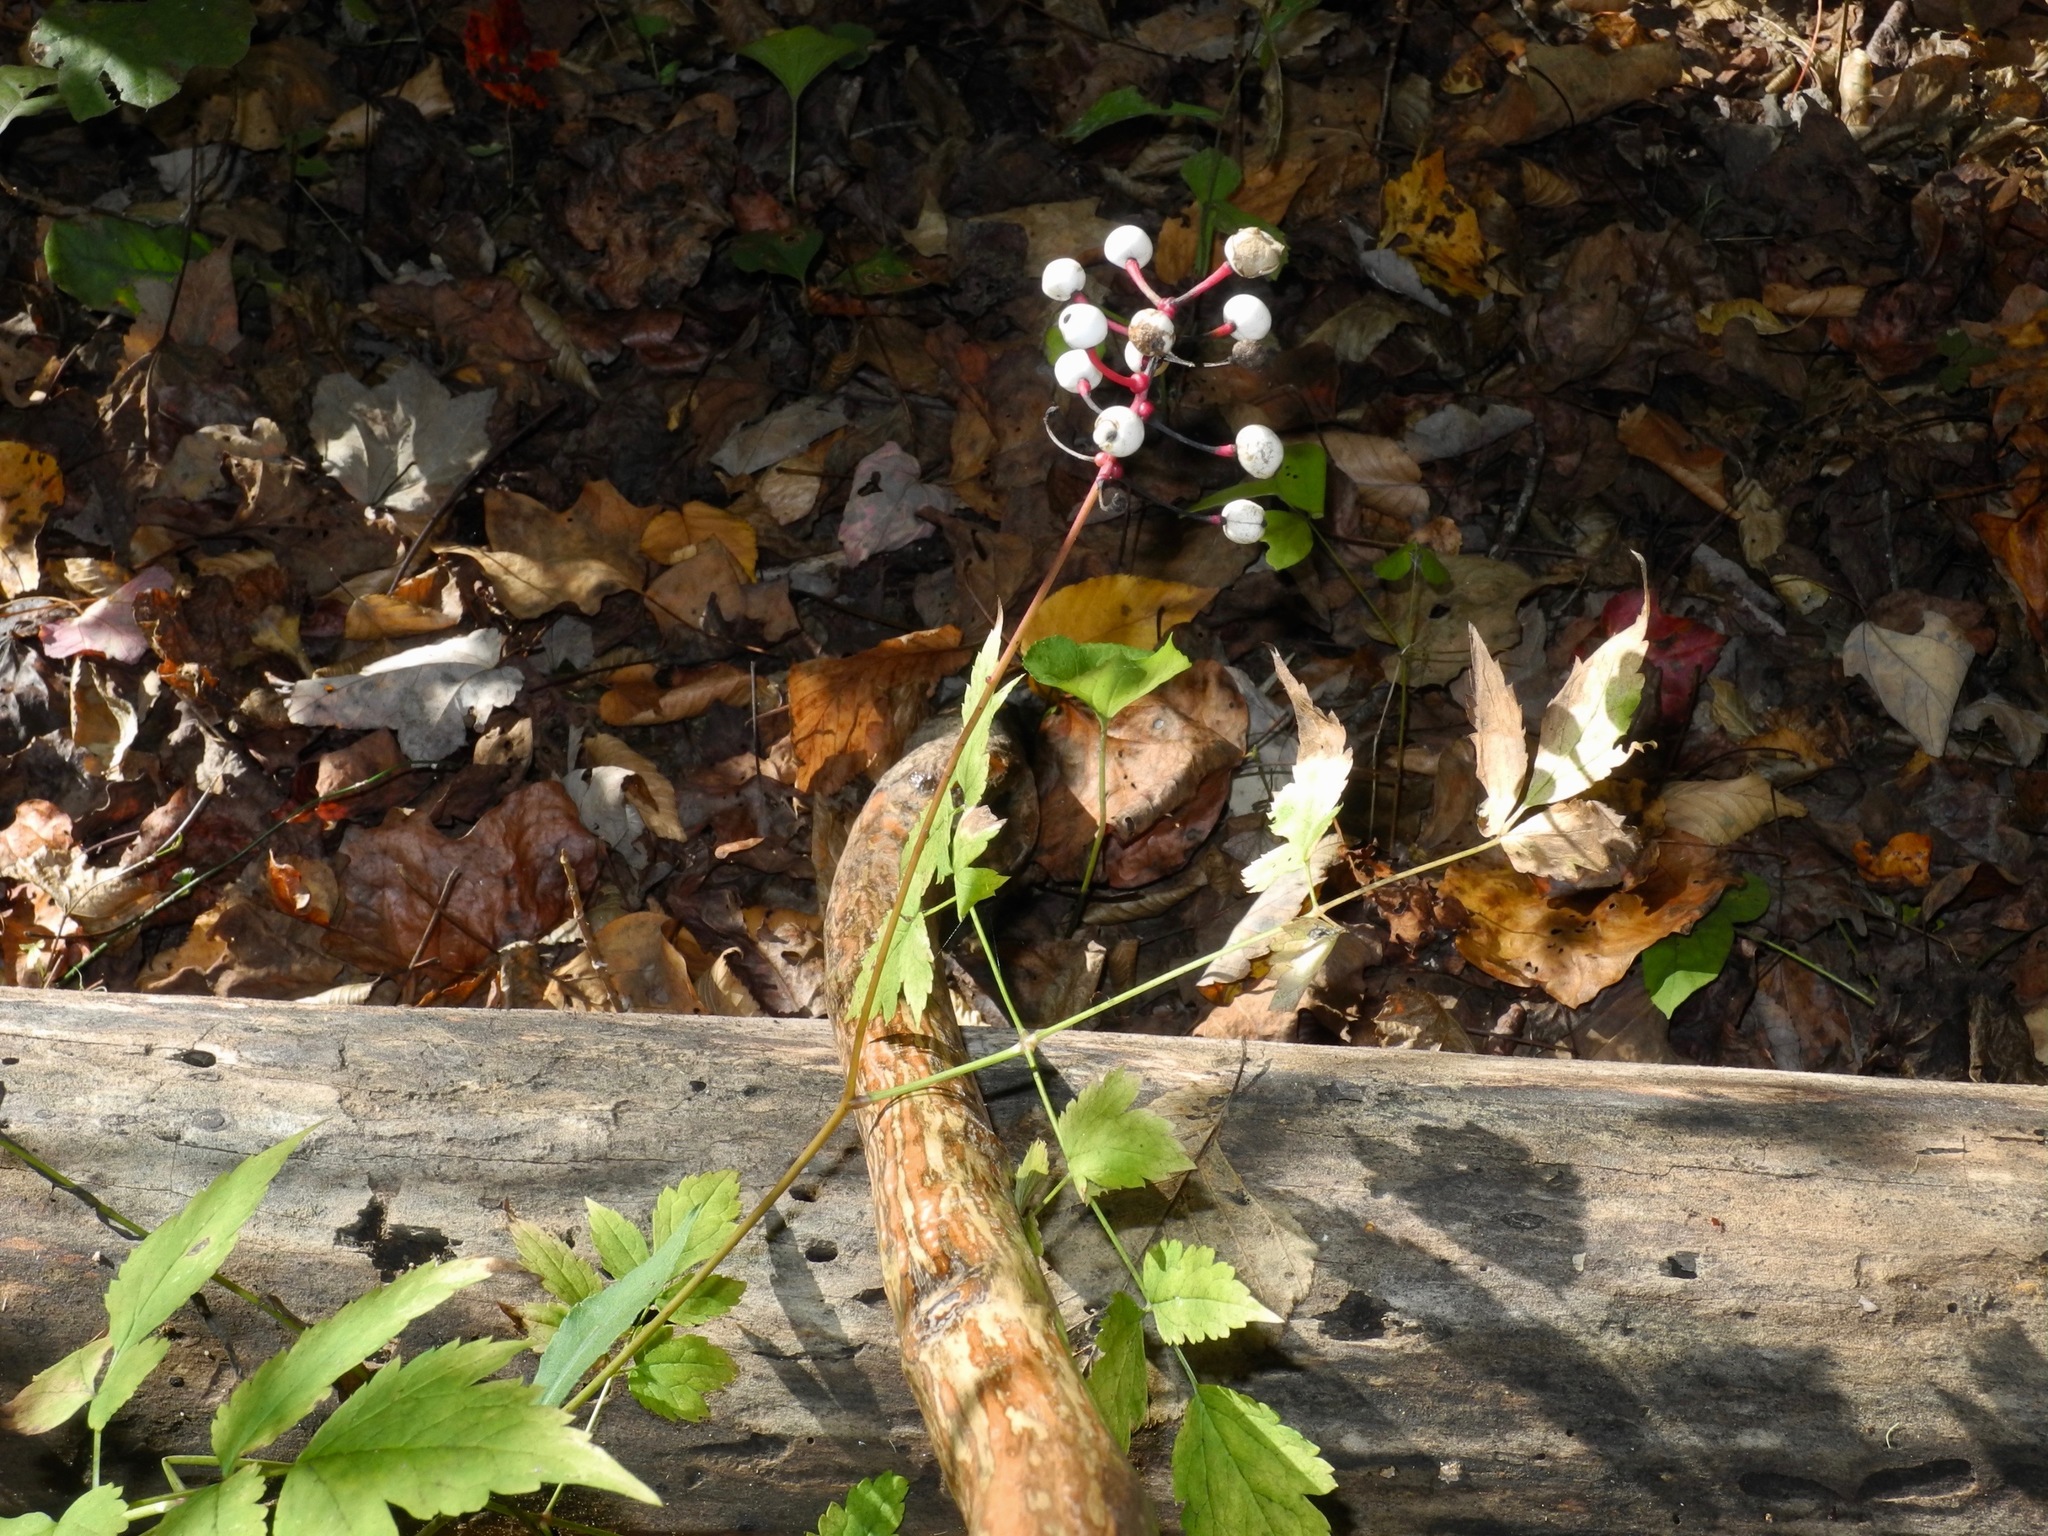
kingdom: Plantae
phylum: Tracheophyta
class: Magnoliopsida
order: Ranunculales
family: Ranunculaceae
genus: Actaea
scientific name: Actaea pachypoda
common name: Doll's-eyes
